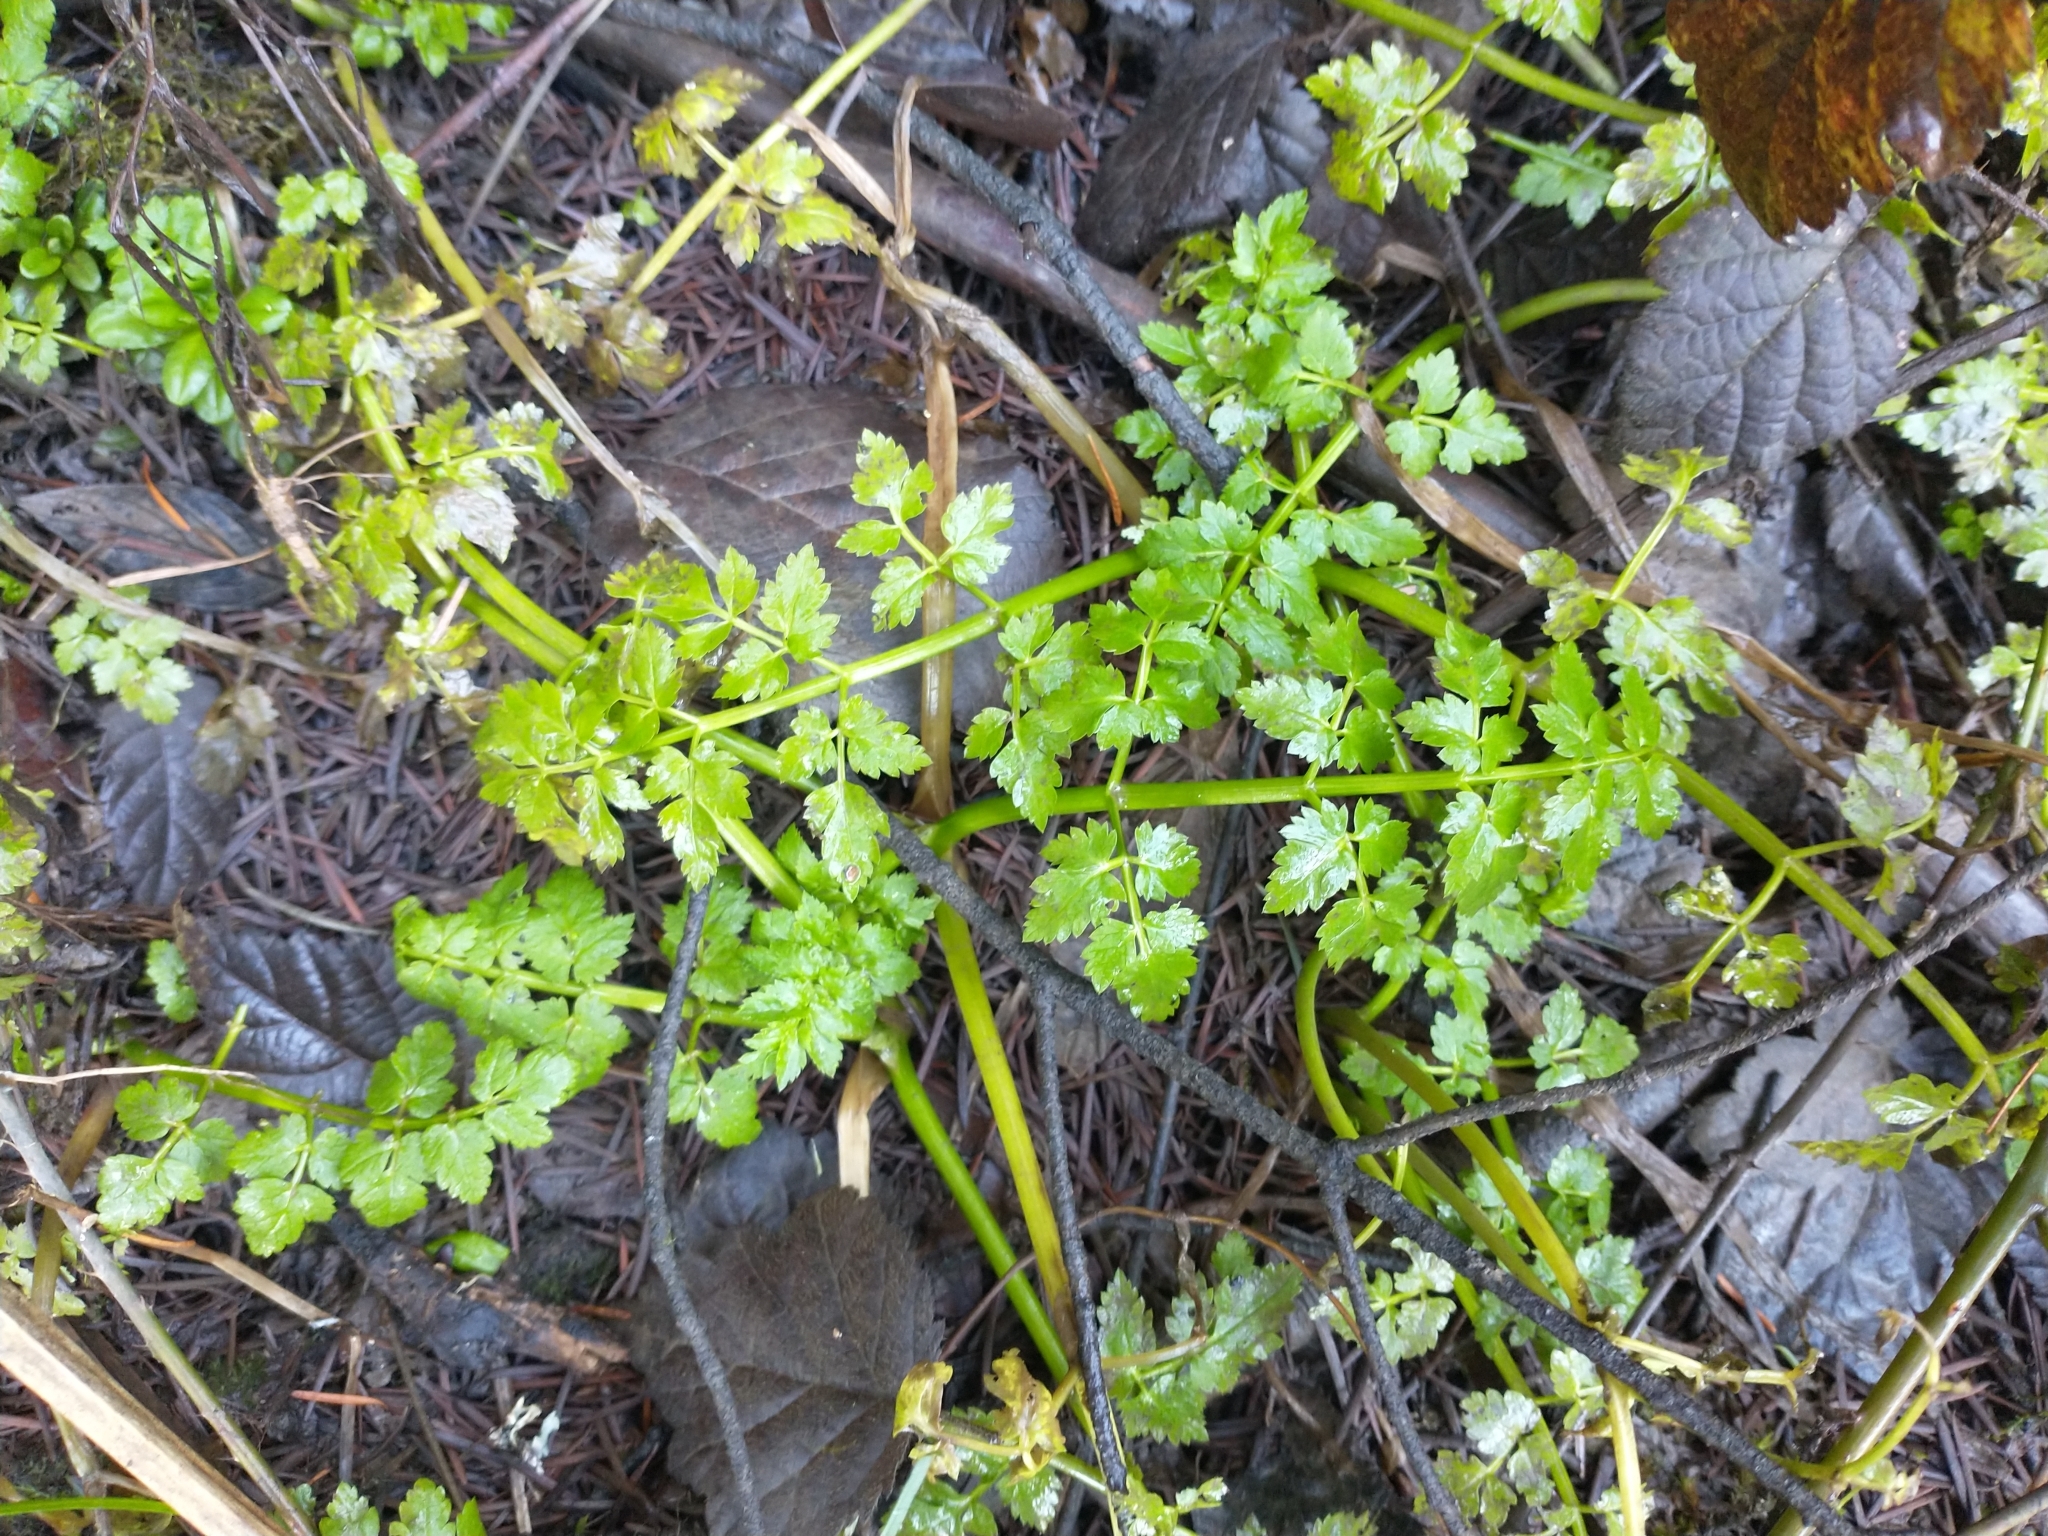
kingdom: Plantae
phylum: Tracheophyta
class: Magnoliopsida
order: Apiales
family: Apiaceae
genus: Oenanthe
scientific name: Oenanthe sarmentosa
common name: American water-parsley
